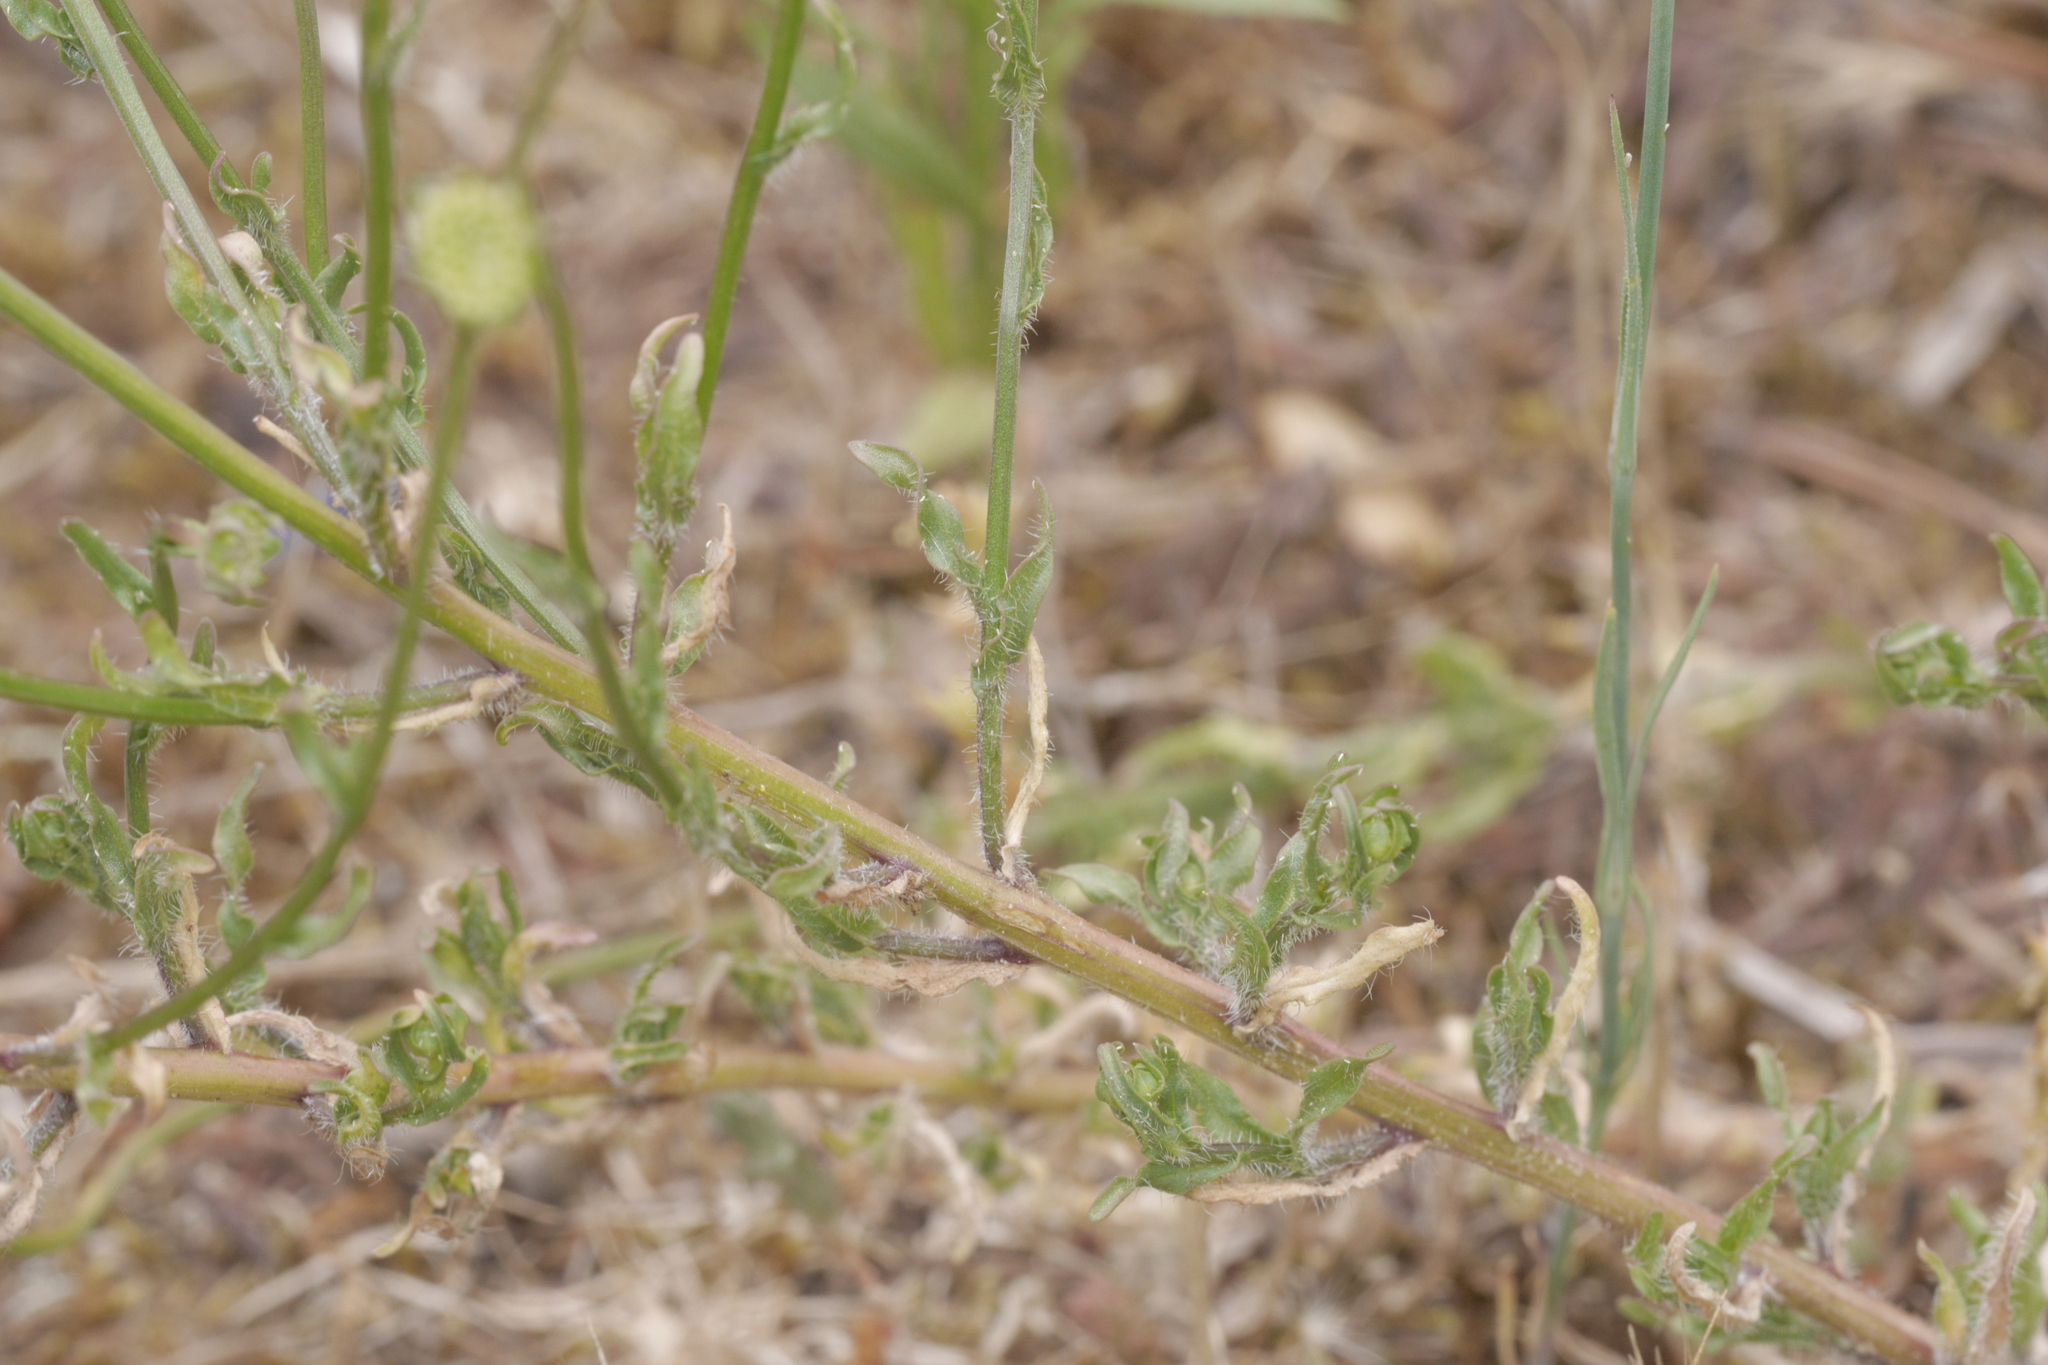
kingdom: Plantae
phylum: Tracheophyta
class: Magnoliopsida
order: Asterales
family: Campanulaceae
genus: Jasione
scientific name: Jasione montana
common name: Sheep's-bit
